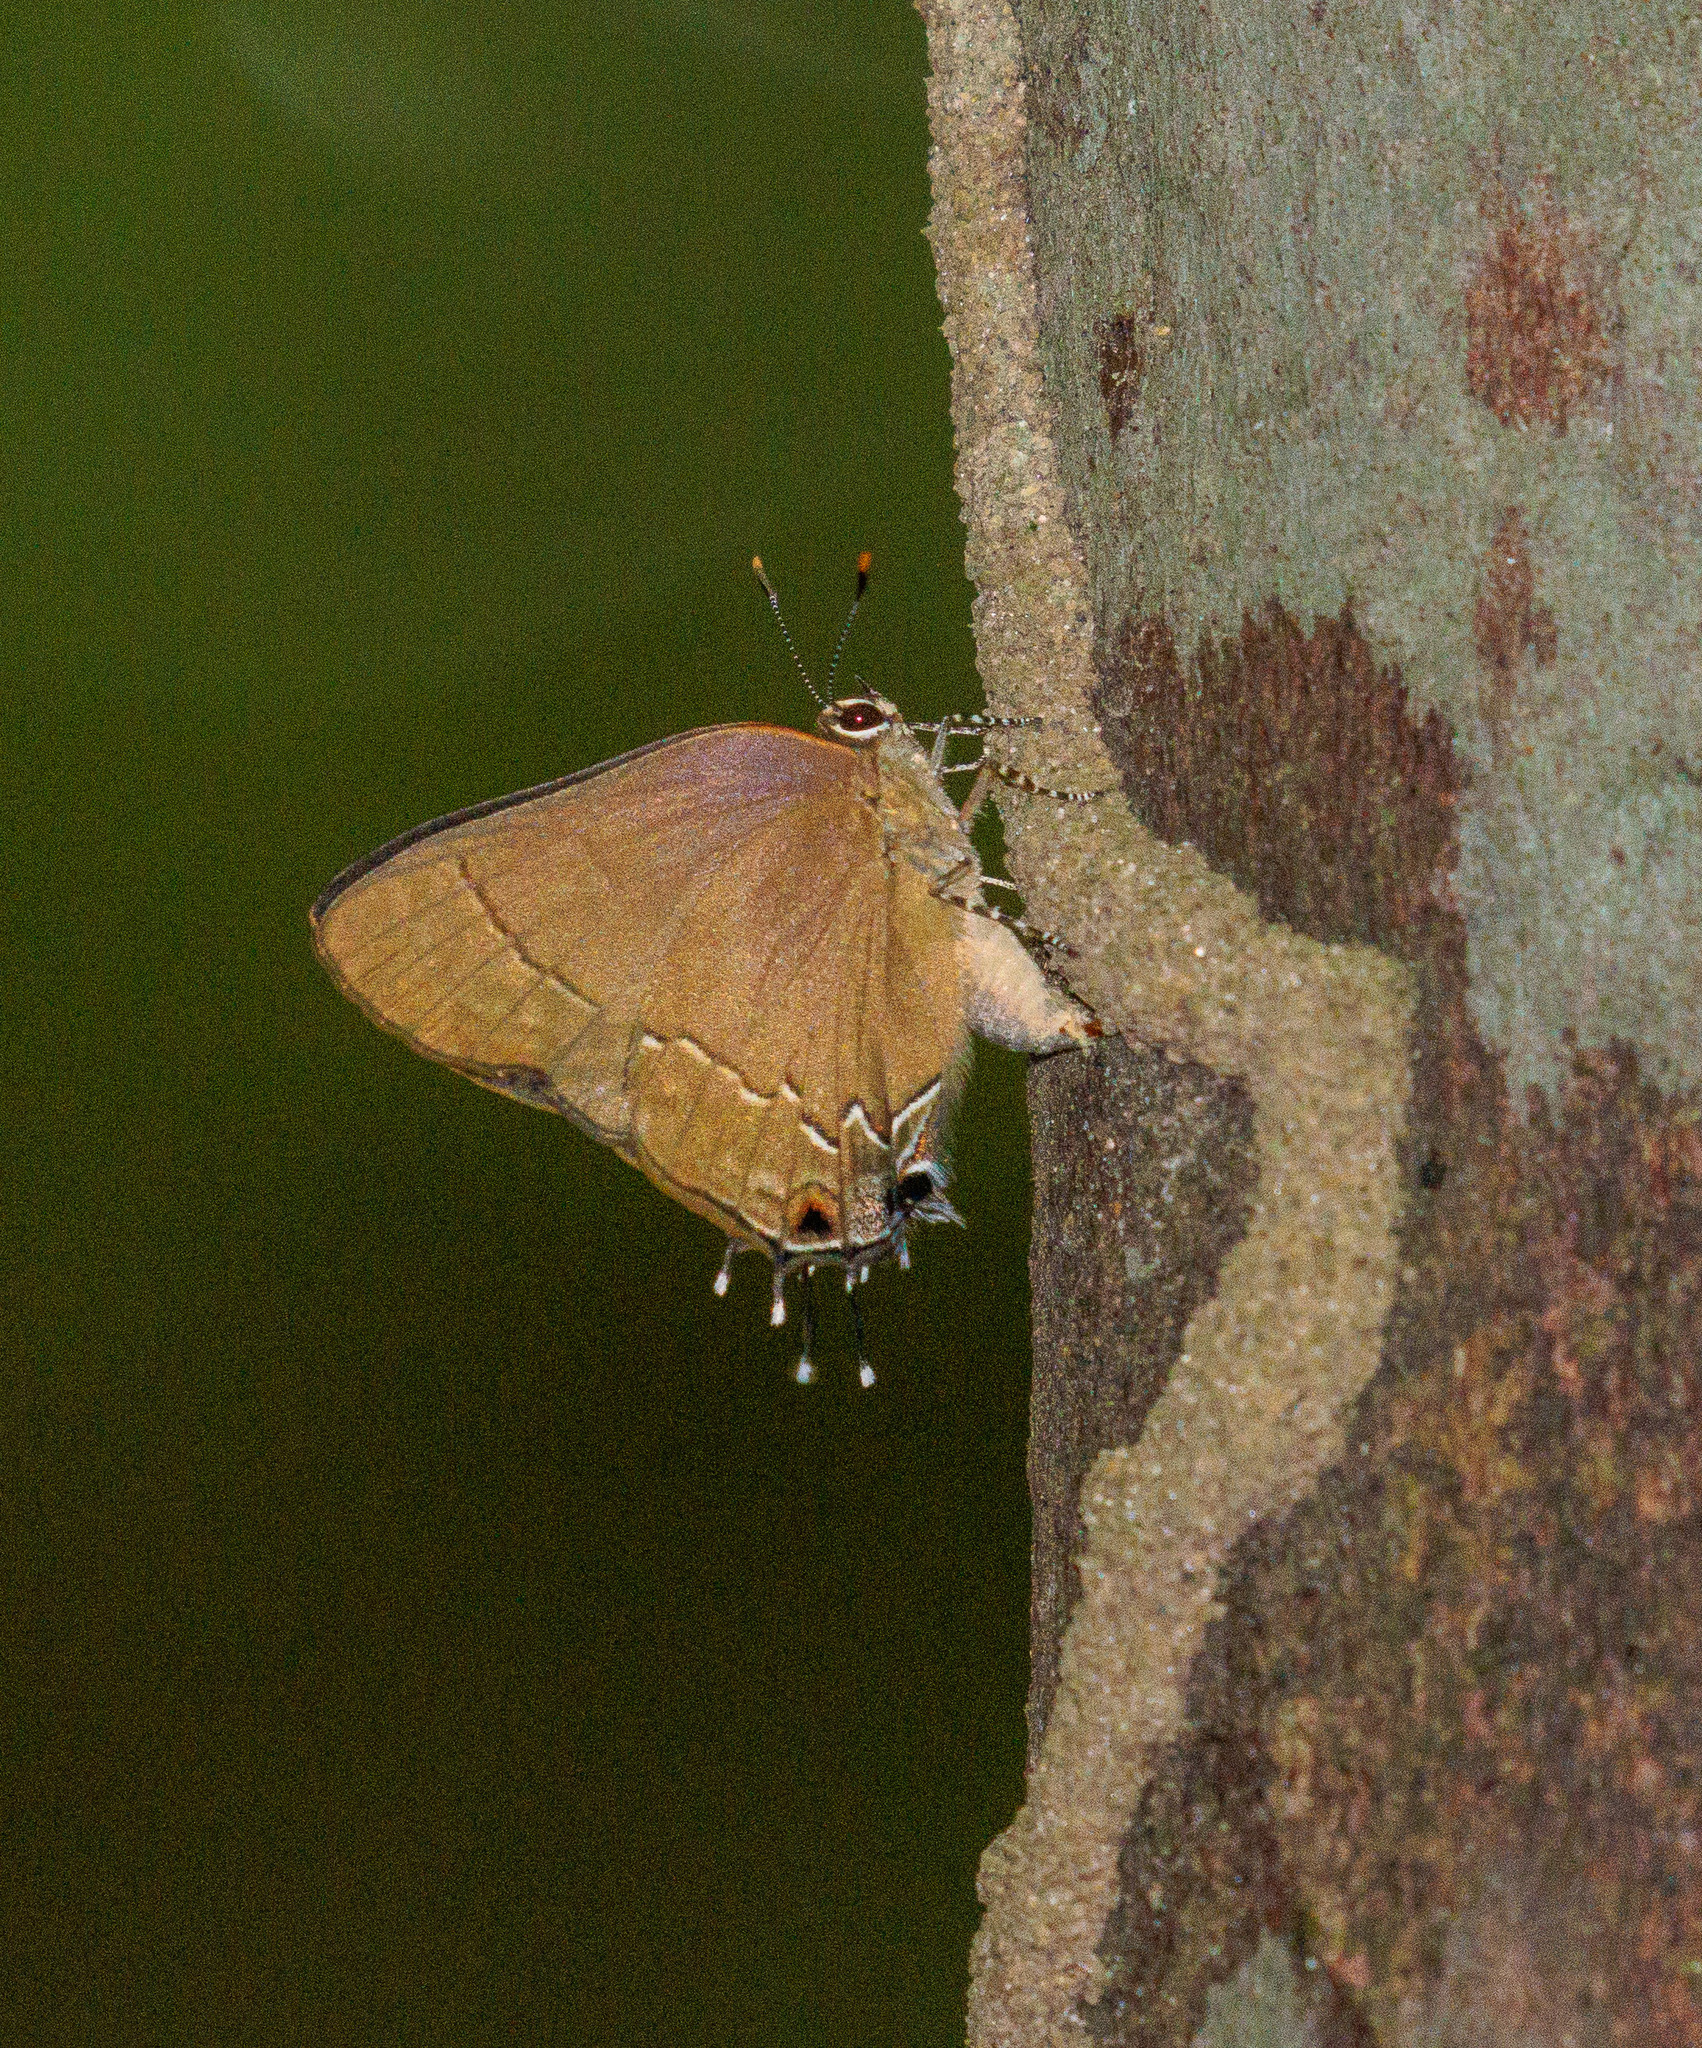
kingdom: Animalia
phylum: Arthropoda
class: Insecta
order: Lepidoptera
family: Lycaenidae
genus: Ziegleria
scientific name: Ziegleria hesperitis
